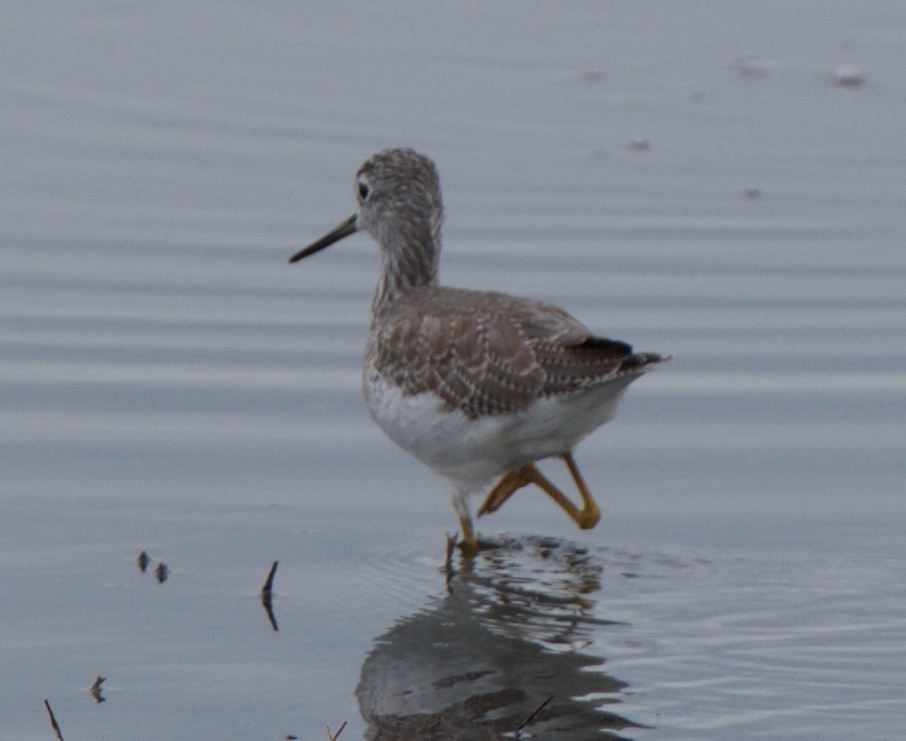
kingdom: Animalia
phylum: Chordata
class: Aves
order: Charadriiformes
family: Scolopacidae
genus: Tringa
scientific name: Tringa melanoleuca
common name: Greater yellowlegs
